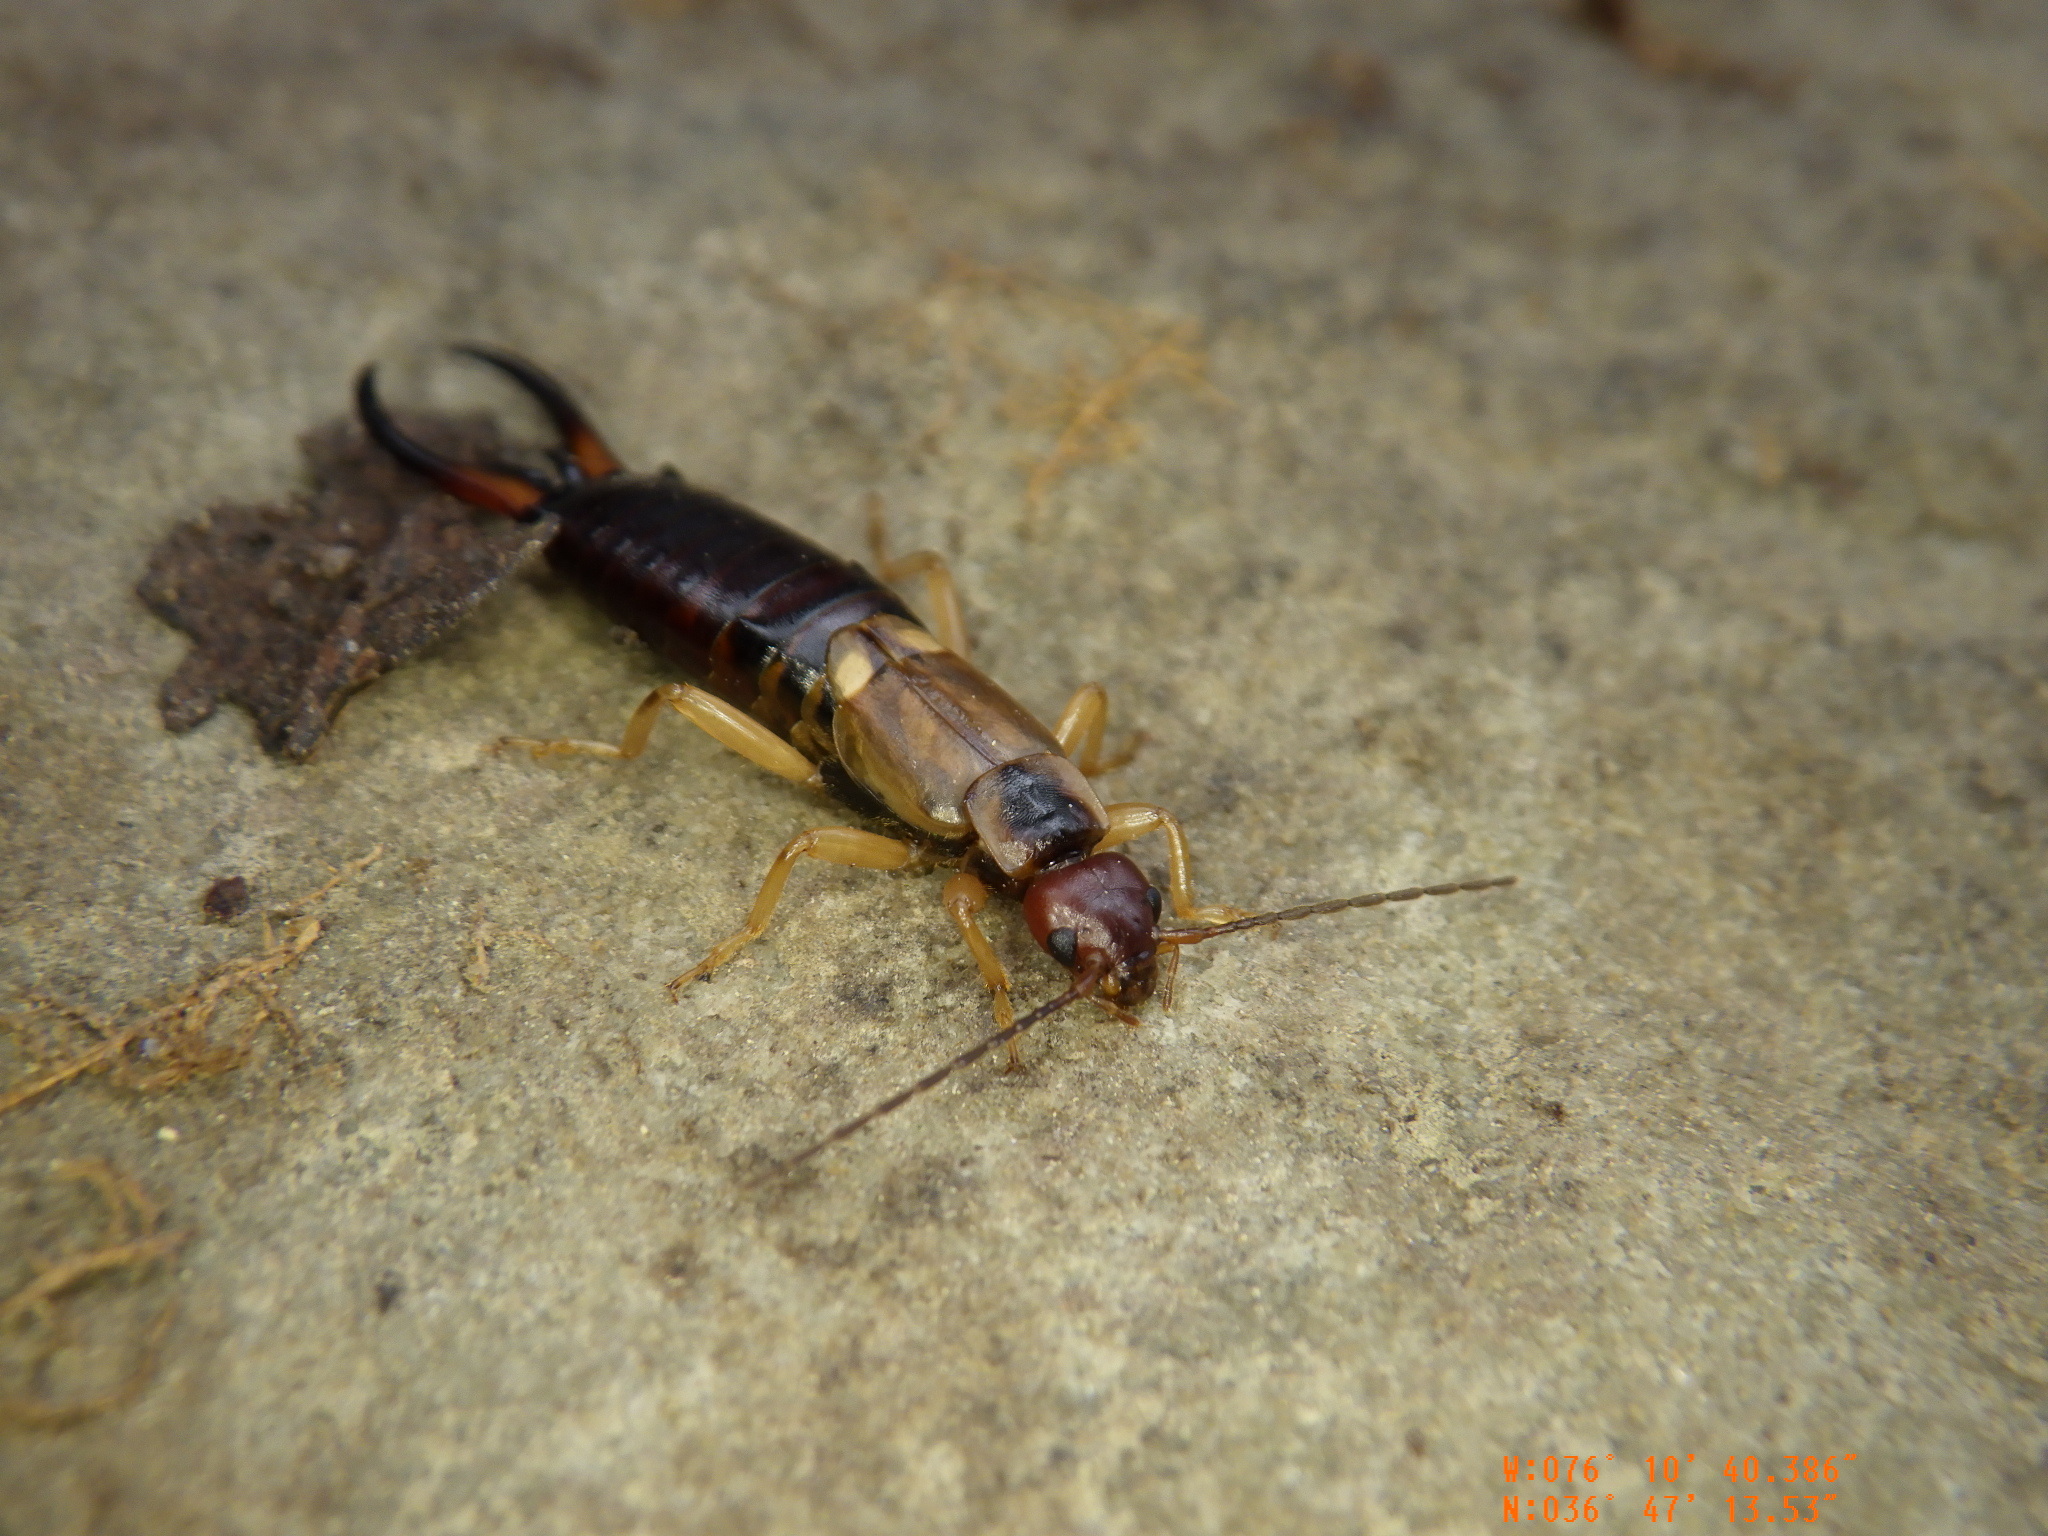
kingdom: Animalia
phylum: Arthropoda
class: Insecta
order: Dermaptera
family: Forficulidae
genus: Forficula
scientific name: Forficula
